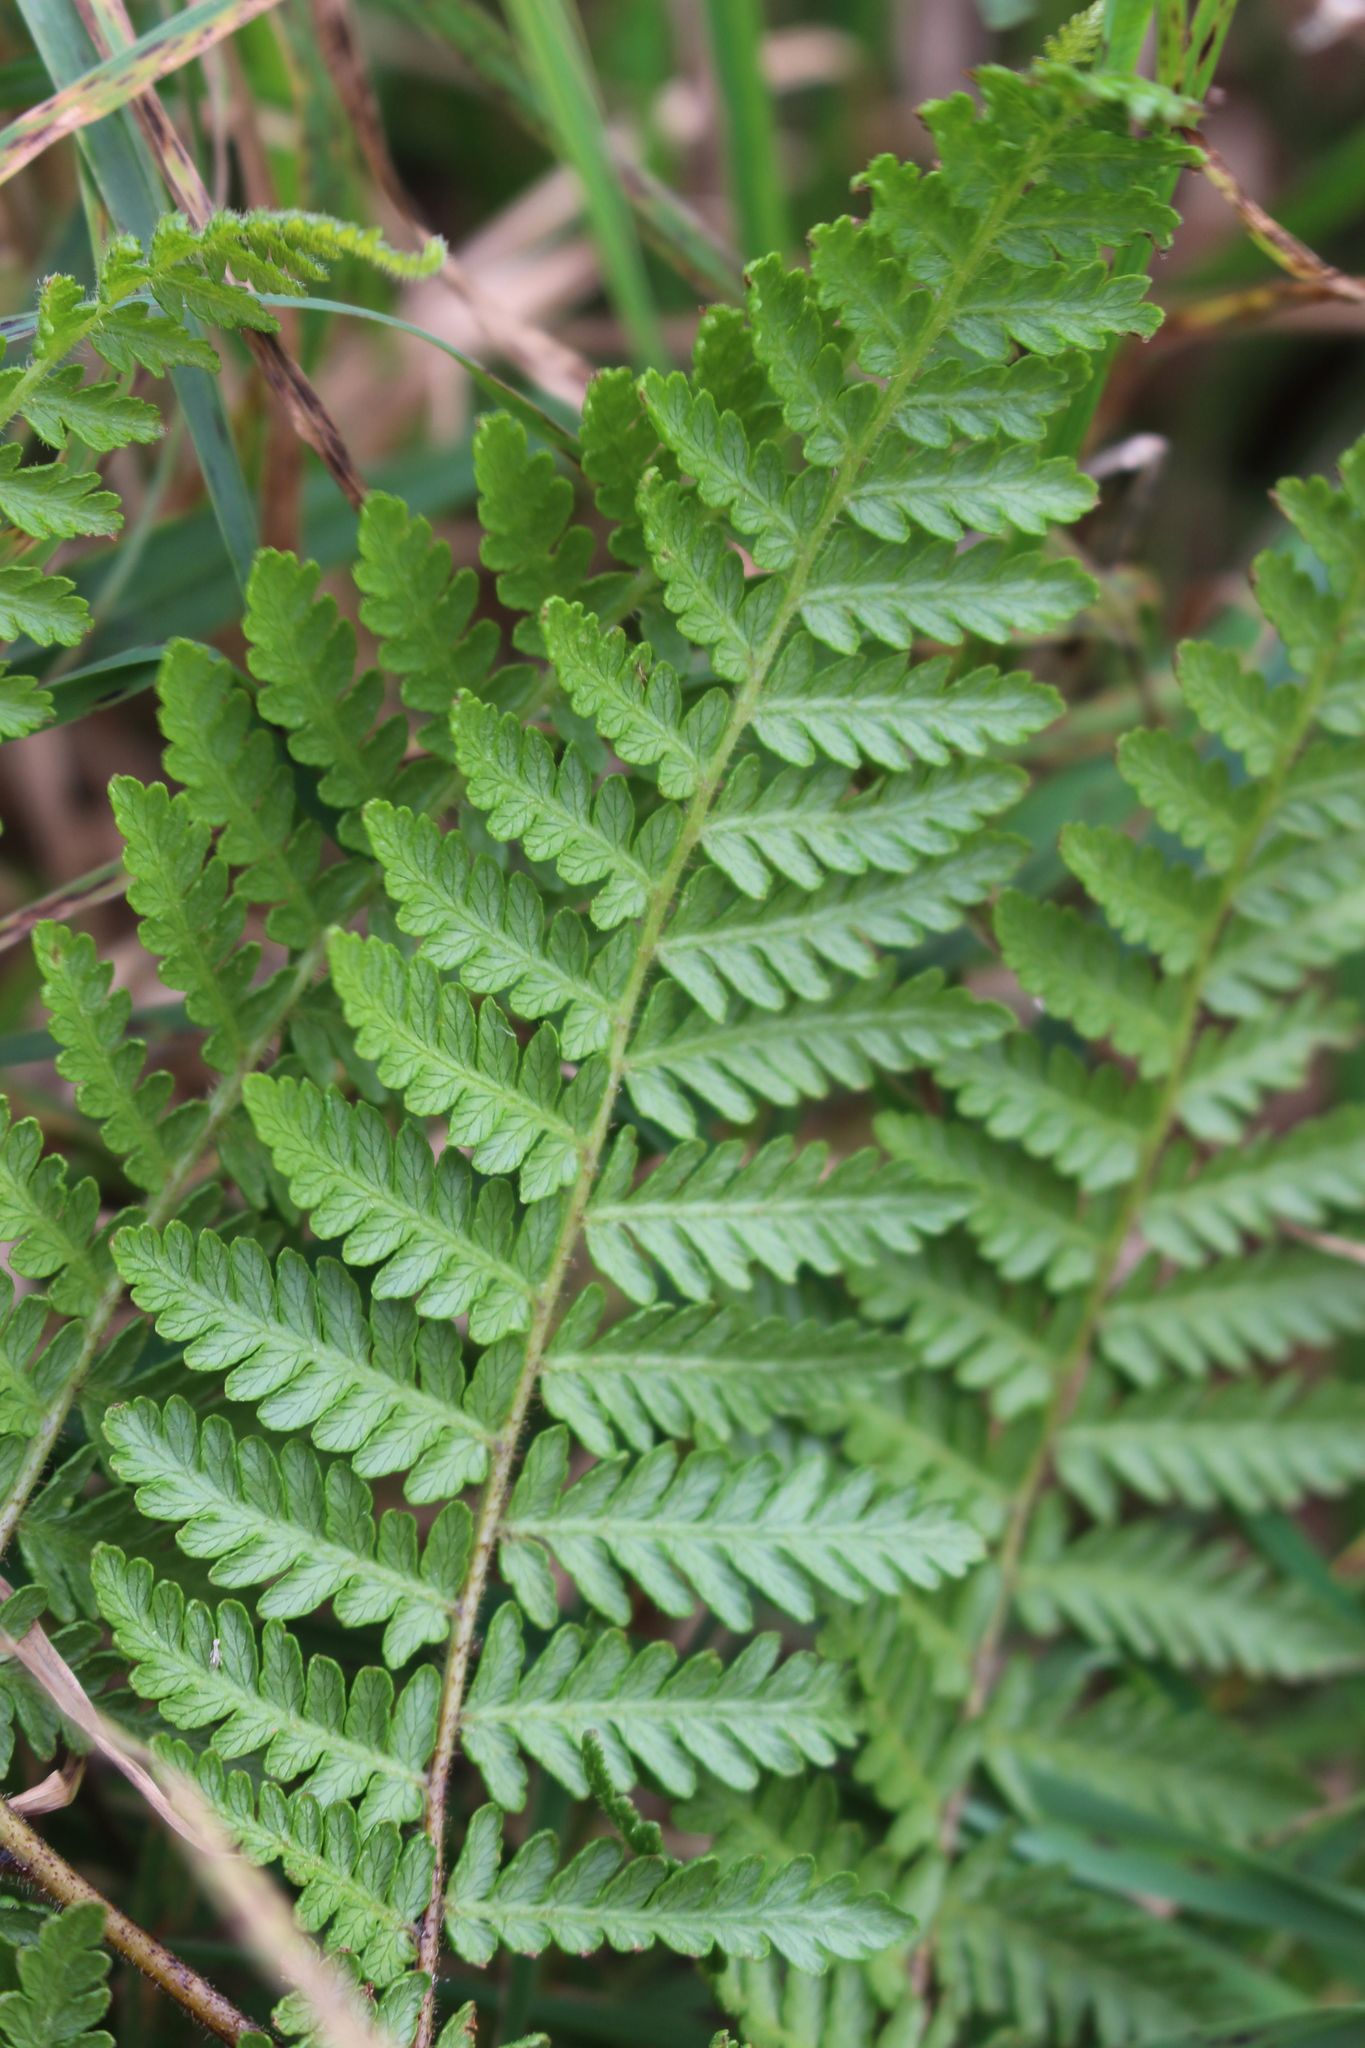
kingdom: Plantae
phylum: Tracheophyta
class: Polypodiopsida
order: Polypodiales
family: Dennstaedtiaceae
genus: Hypolepis
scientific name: Hypolepis ambigua
